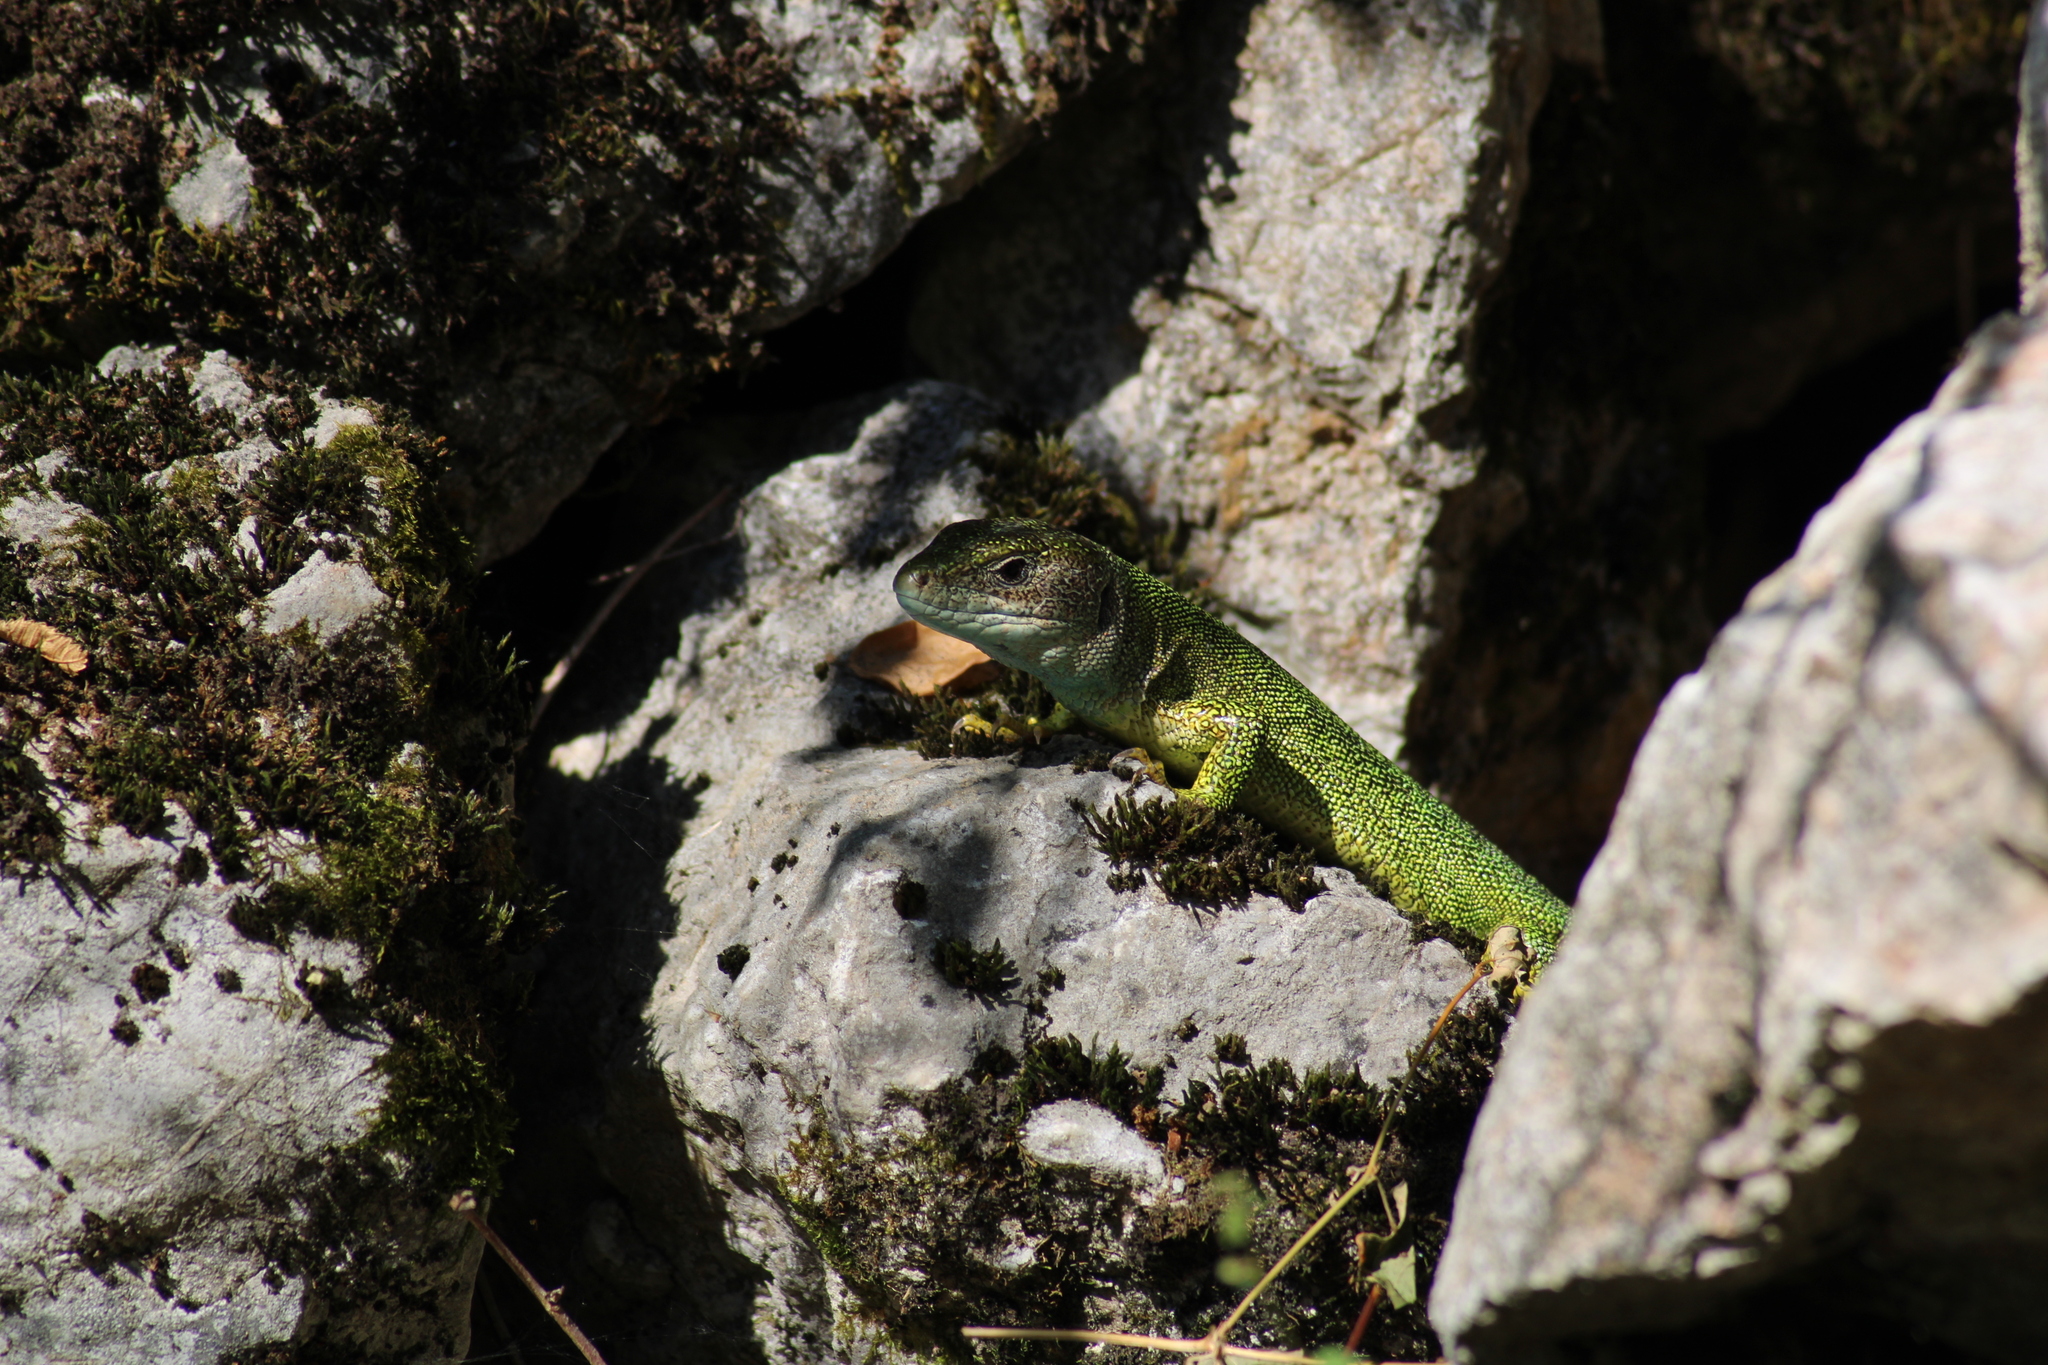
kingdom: Animalia
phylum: Chordata
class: Squamata
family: Lacertidae
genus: Lacerta
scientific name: Lacerta viridis
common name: European green lizard
